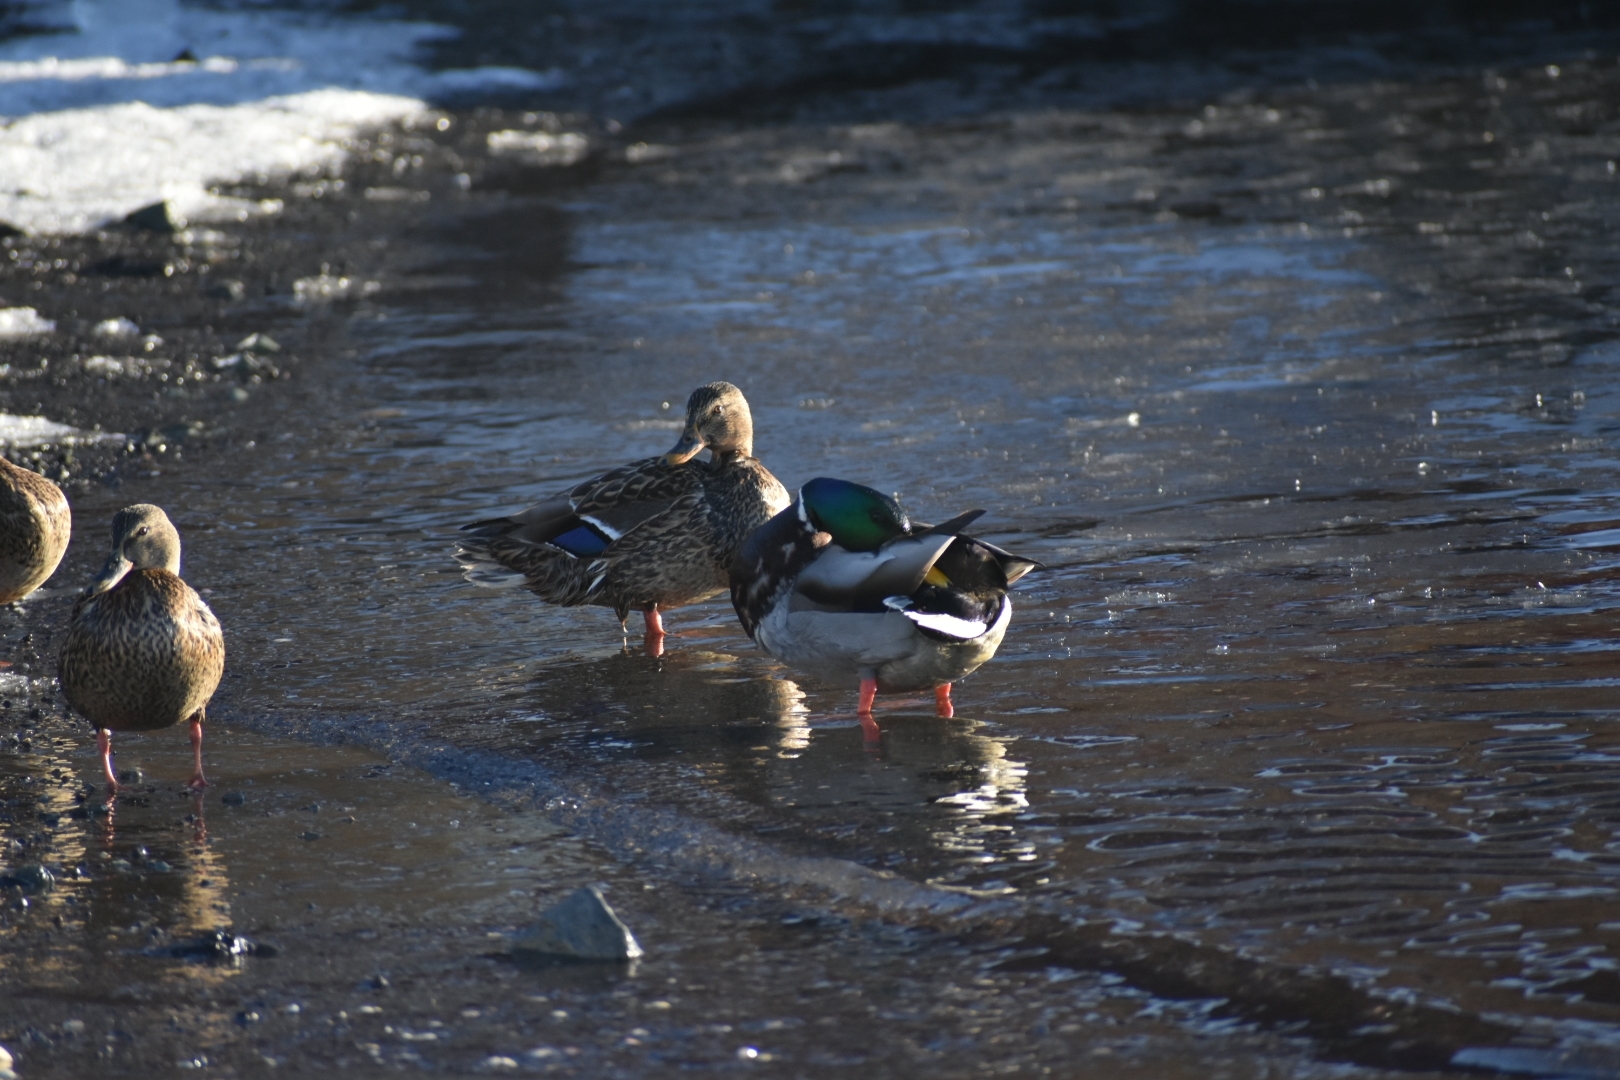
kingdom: Animalia
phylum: Chordata
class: Aves
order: Anseriformes
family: Anatidae
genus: Anas
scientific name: Anas platyrhynchos
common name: Mallard
